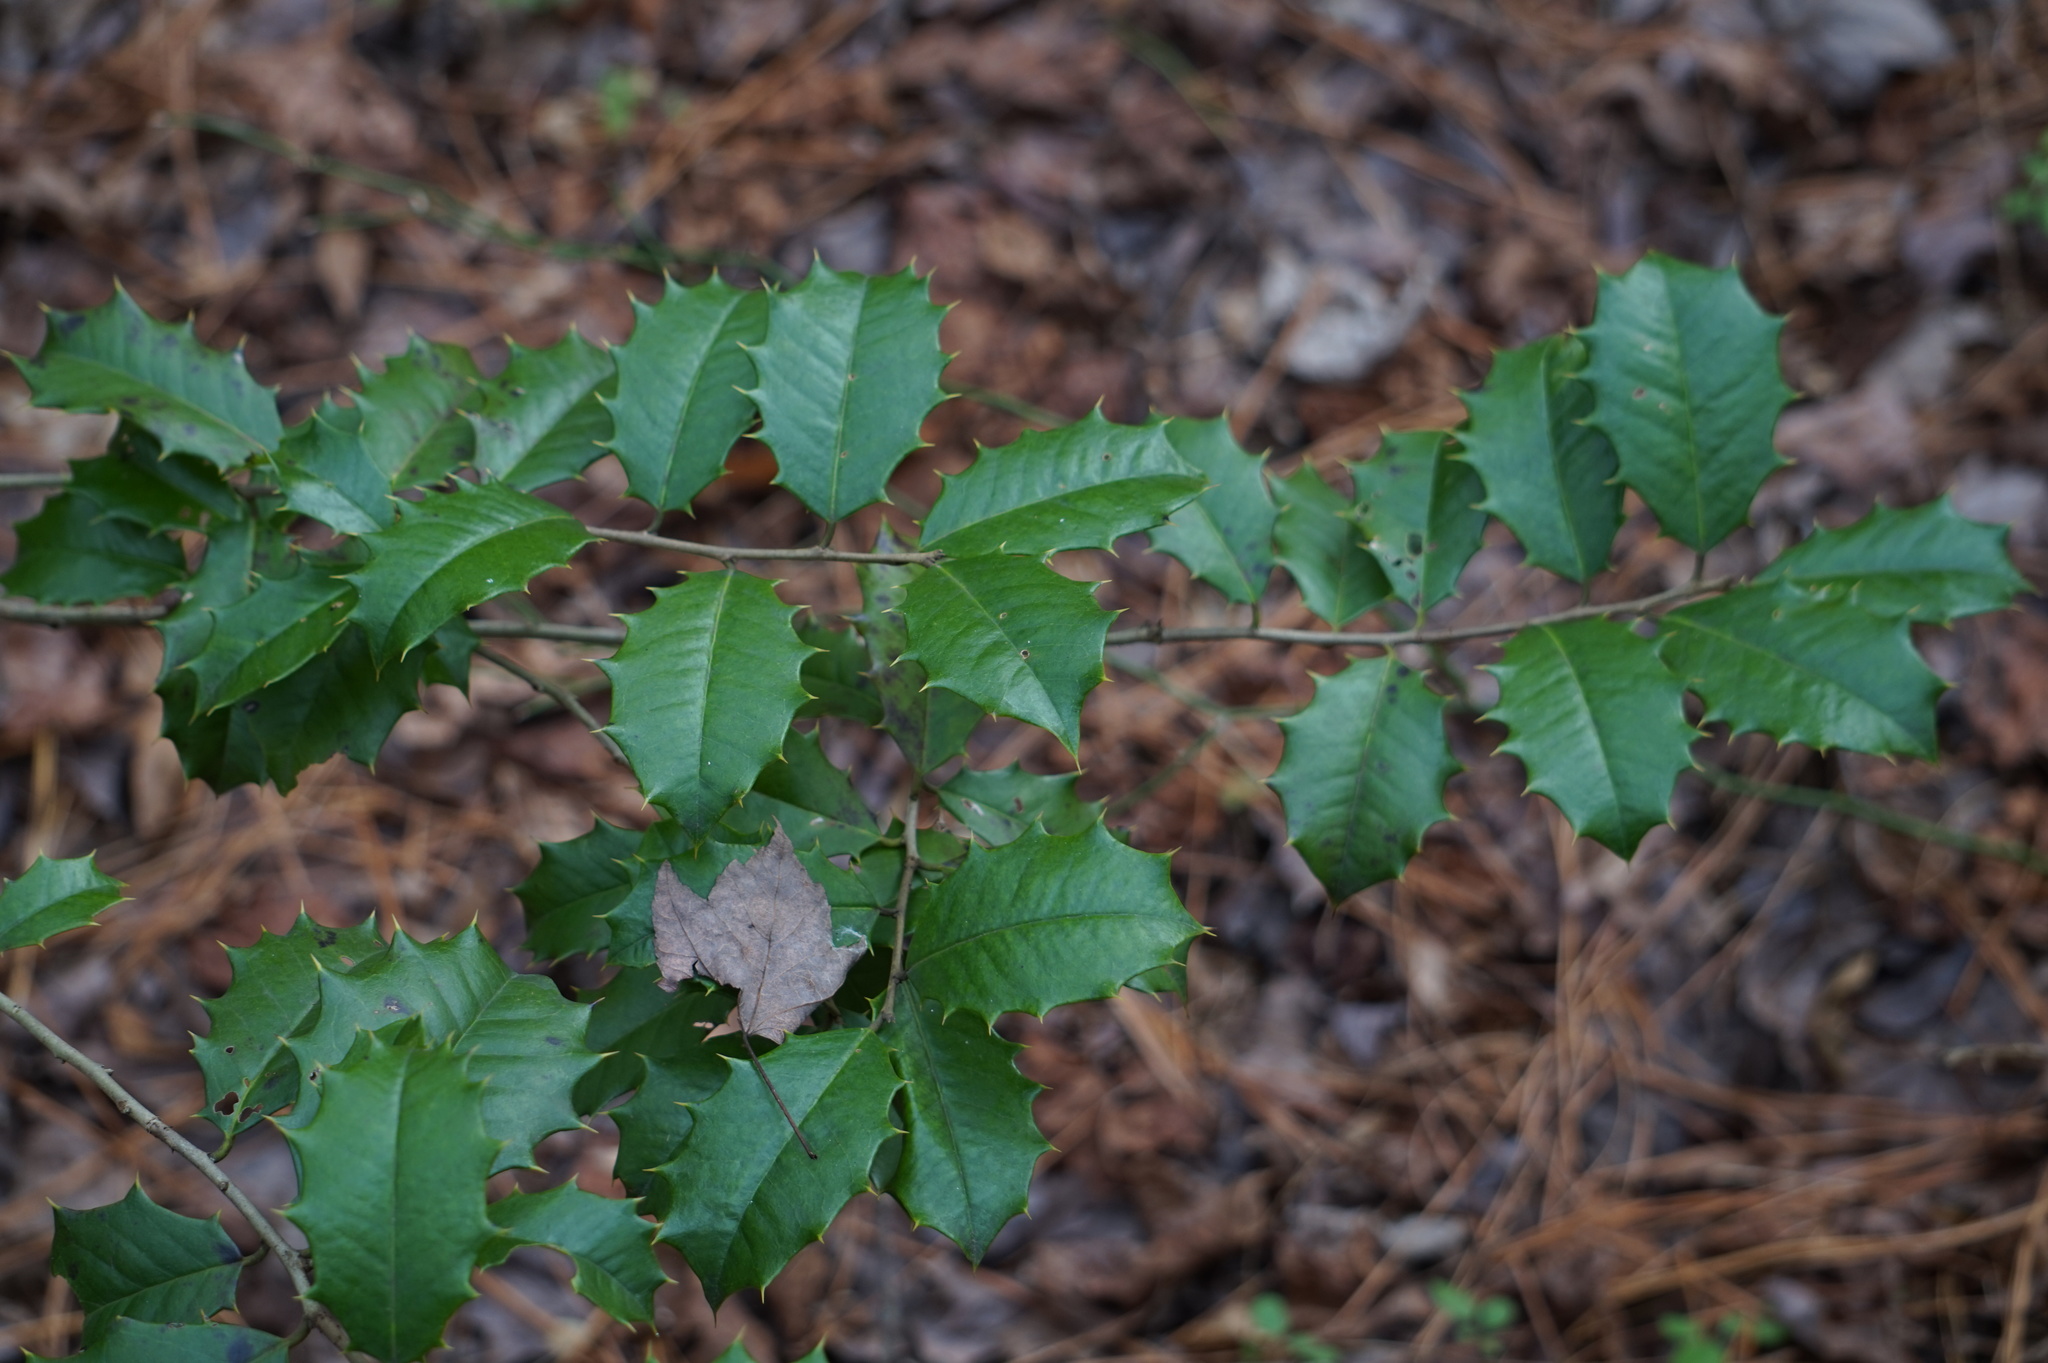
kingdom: Plantae
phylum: Tracheophyta
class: Magnoliopsida
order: Aquifoliales
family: Aquifoliaceae
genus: Ilex
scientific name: Ilex opaca
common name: American holly
